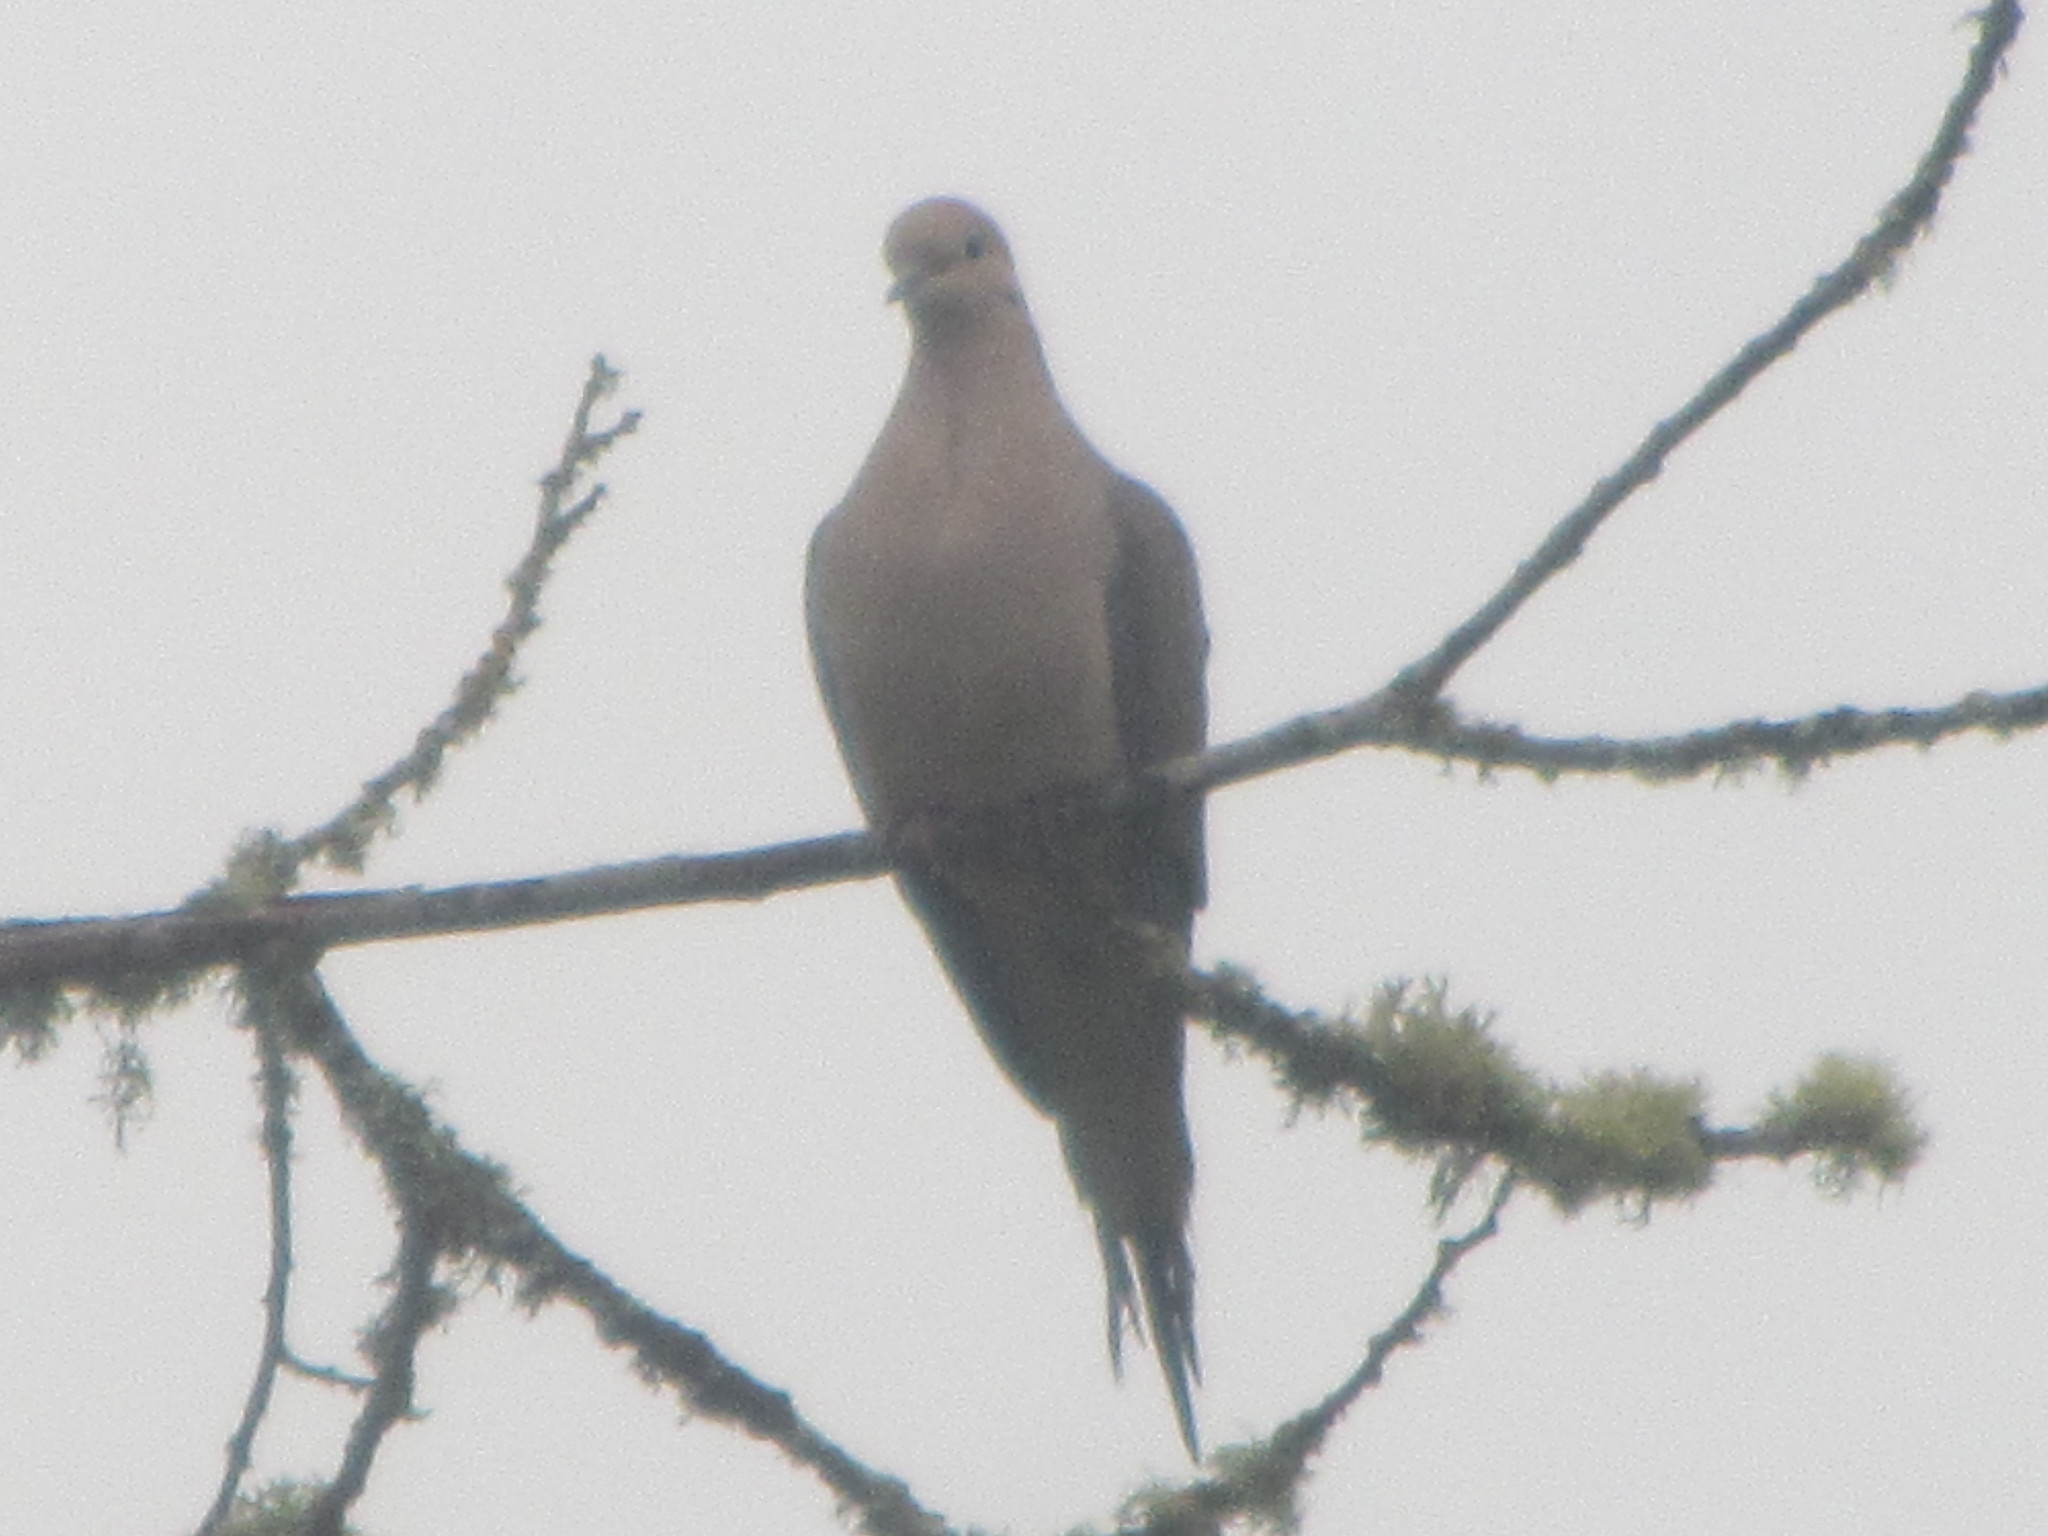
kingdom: Animalia
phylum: Chordata
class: Aves
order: Columbiformes
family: Columbidae
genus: Zenaida
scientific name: Zenaida macroura
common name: Mourning dove
